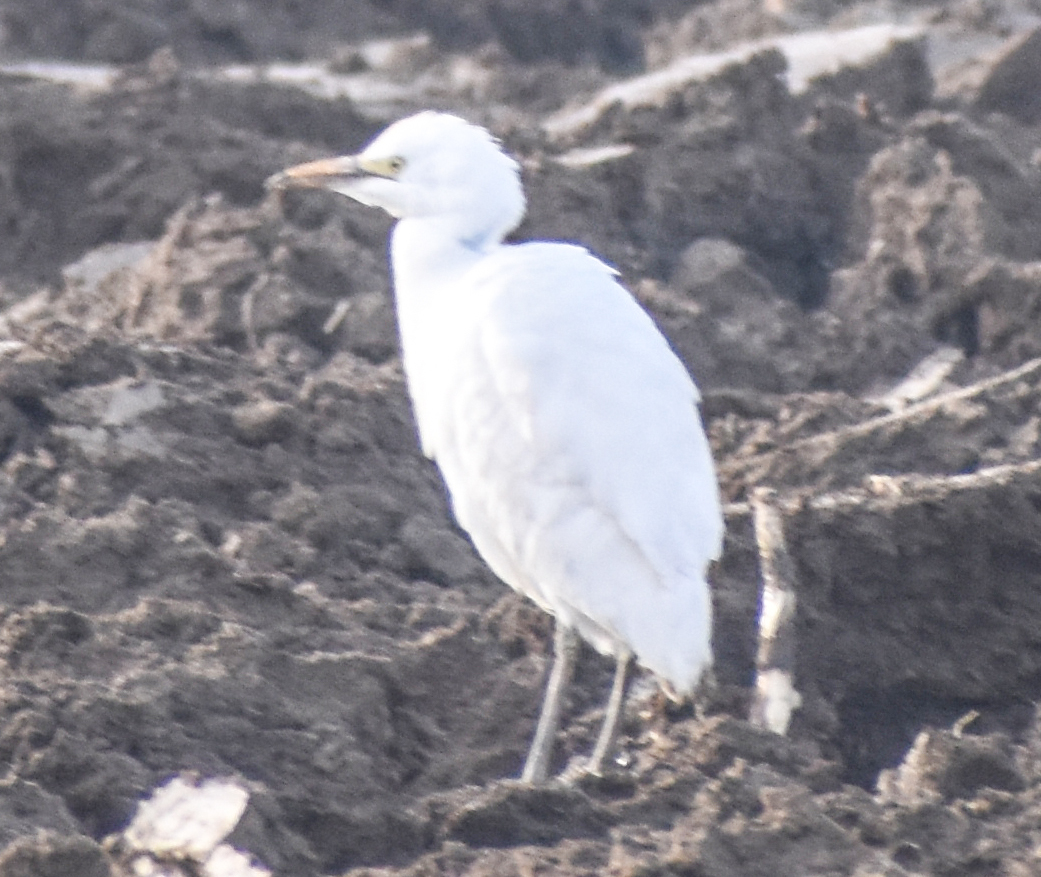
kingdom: Animalia
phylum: Chordata
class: Aves
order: Pelecaniformes
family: Ardeidae
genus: Bubulcus
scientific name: Bubulcus ibis
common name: Cattle egret
